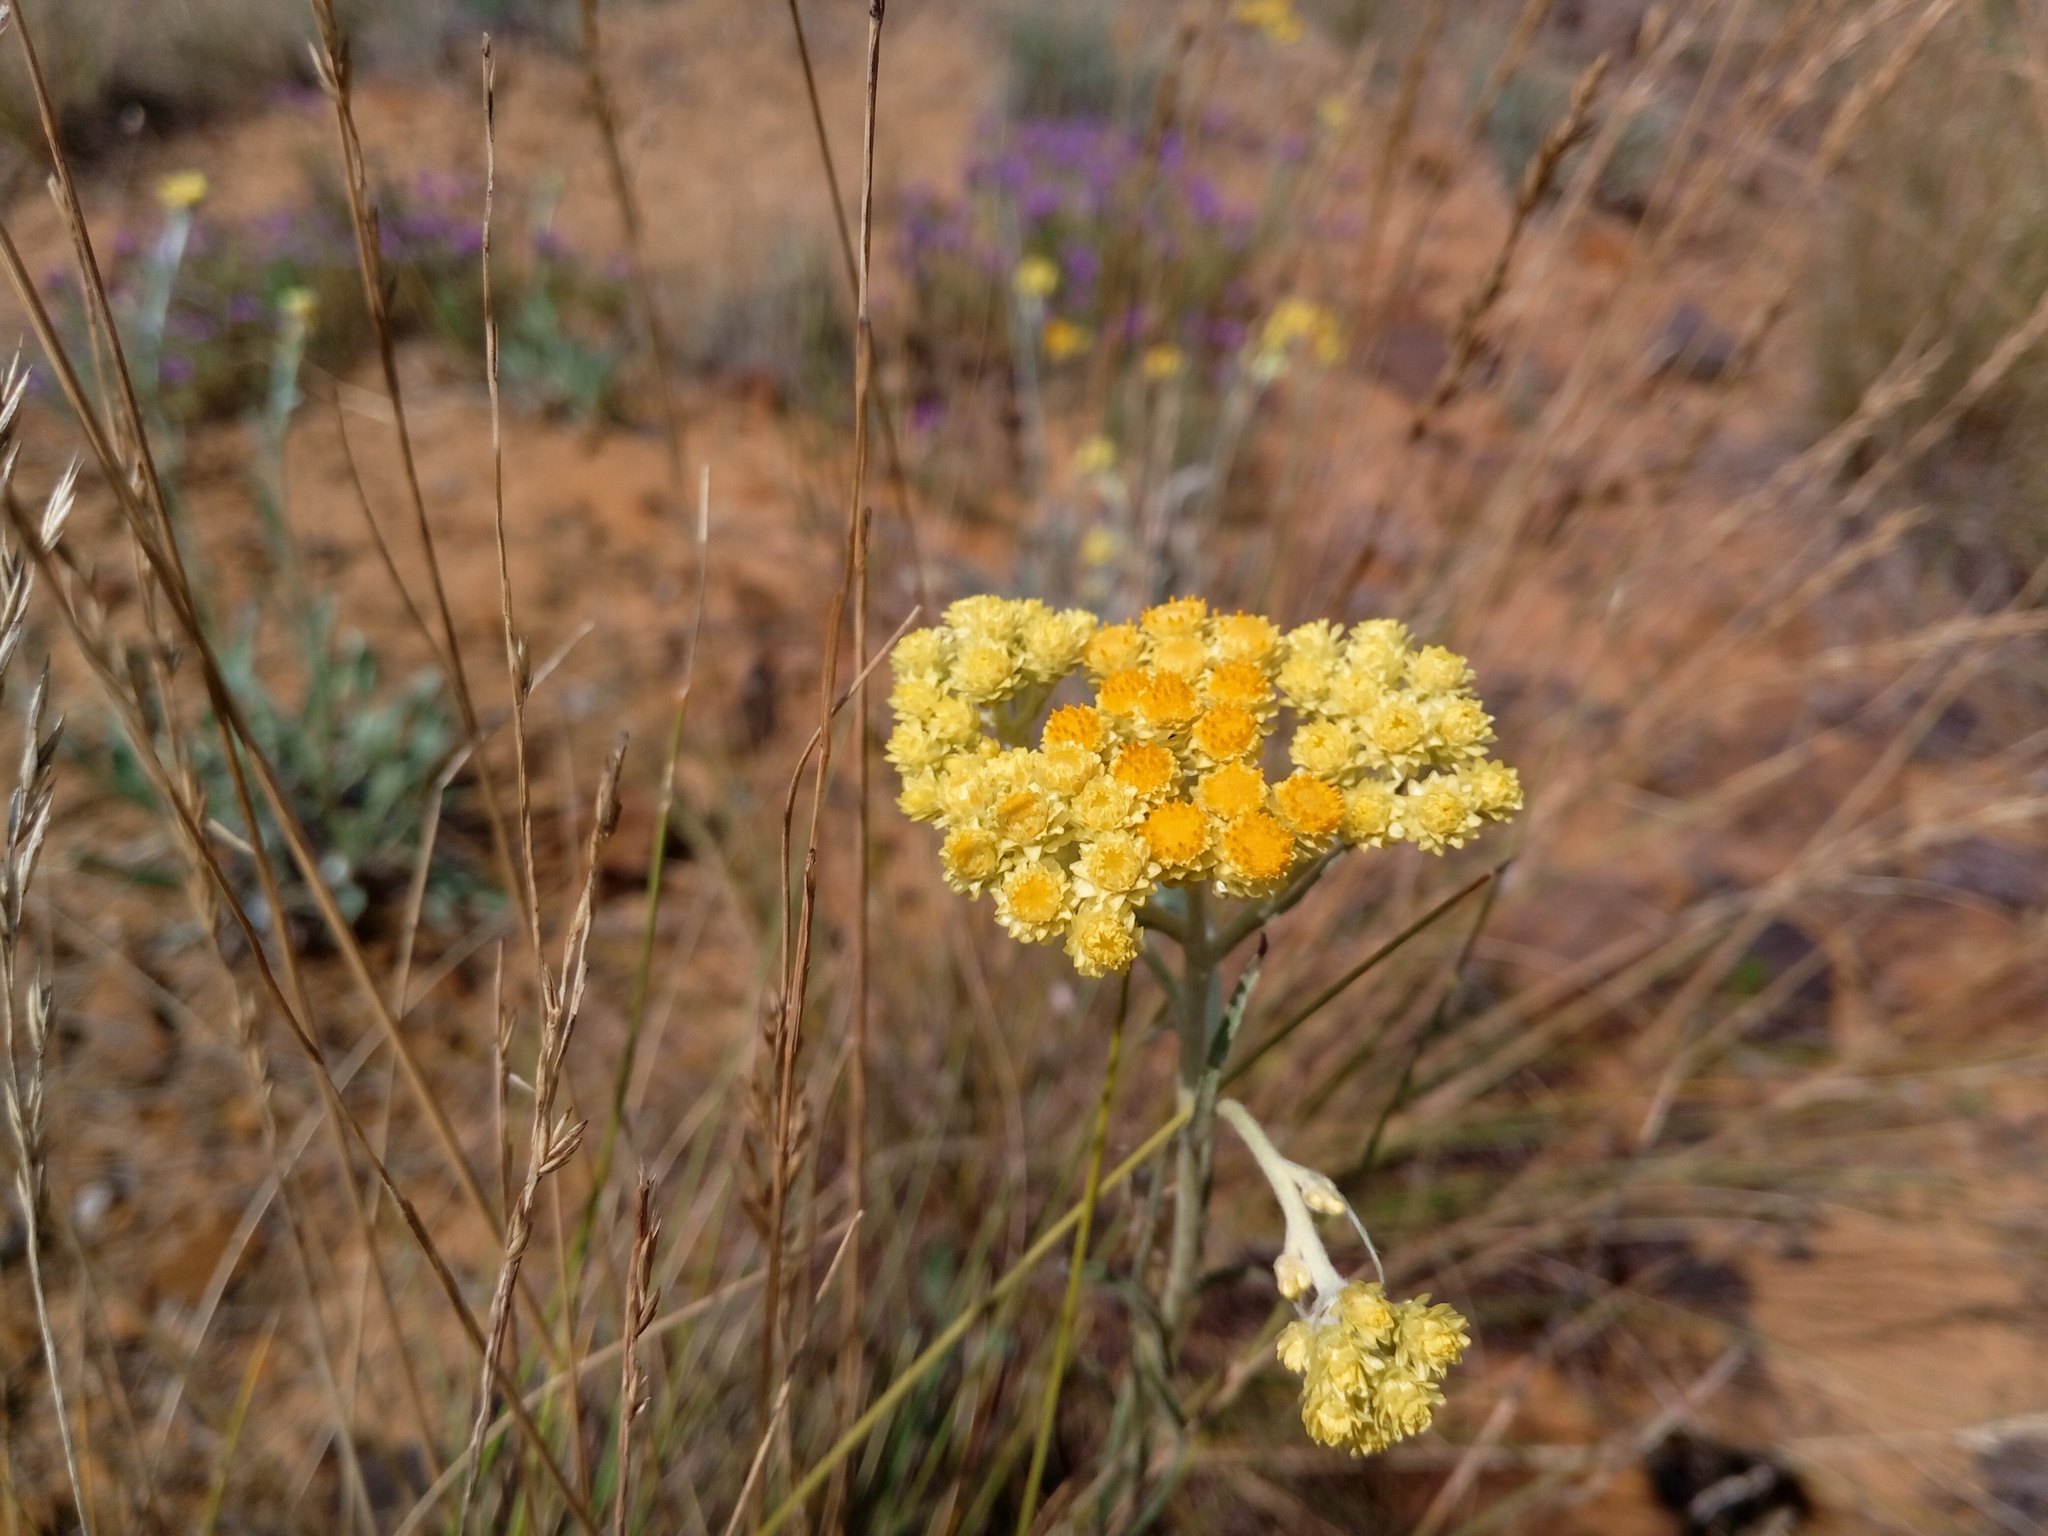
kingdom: Plantae
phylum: Tracheophyta
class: Magnoliopsida
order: Asterales
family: Asteraceae
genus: Helichrysum
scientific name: Helichrysum arenarium
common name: Strawflower
